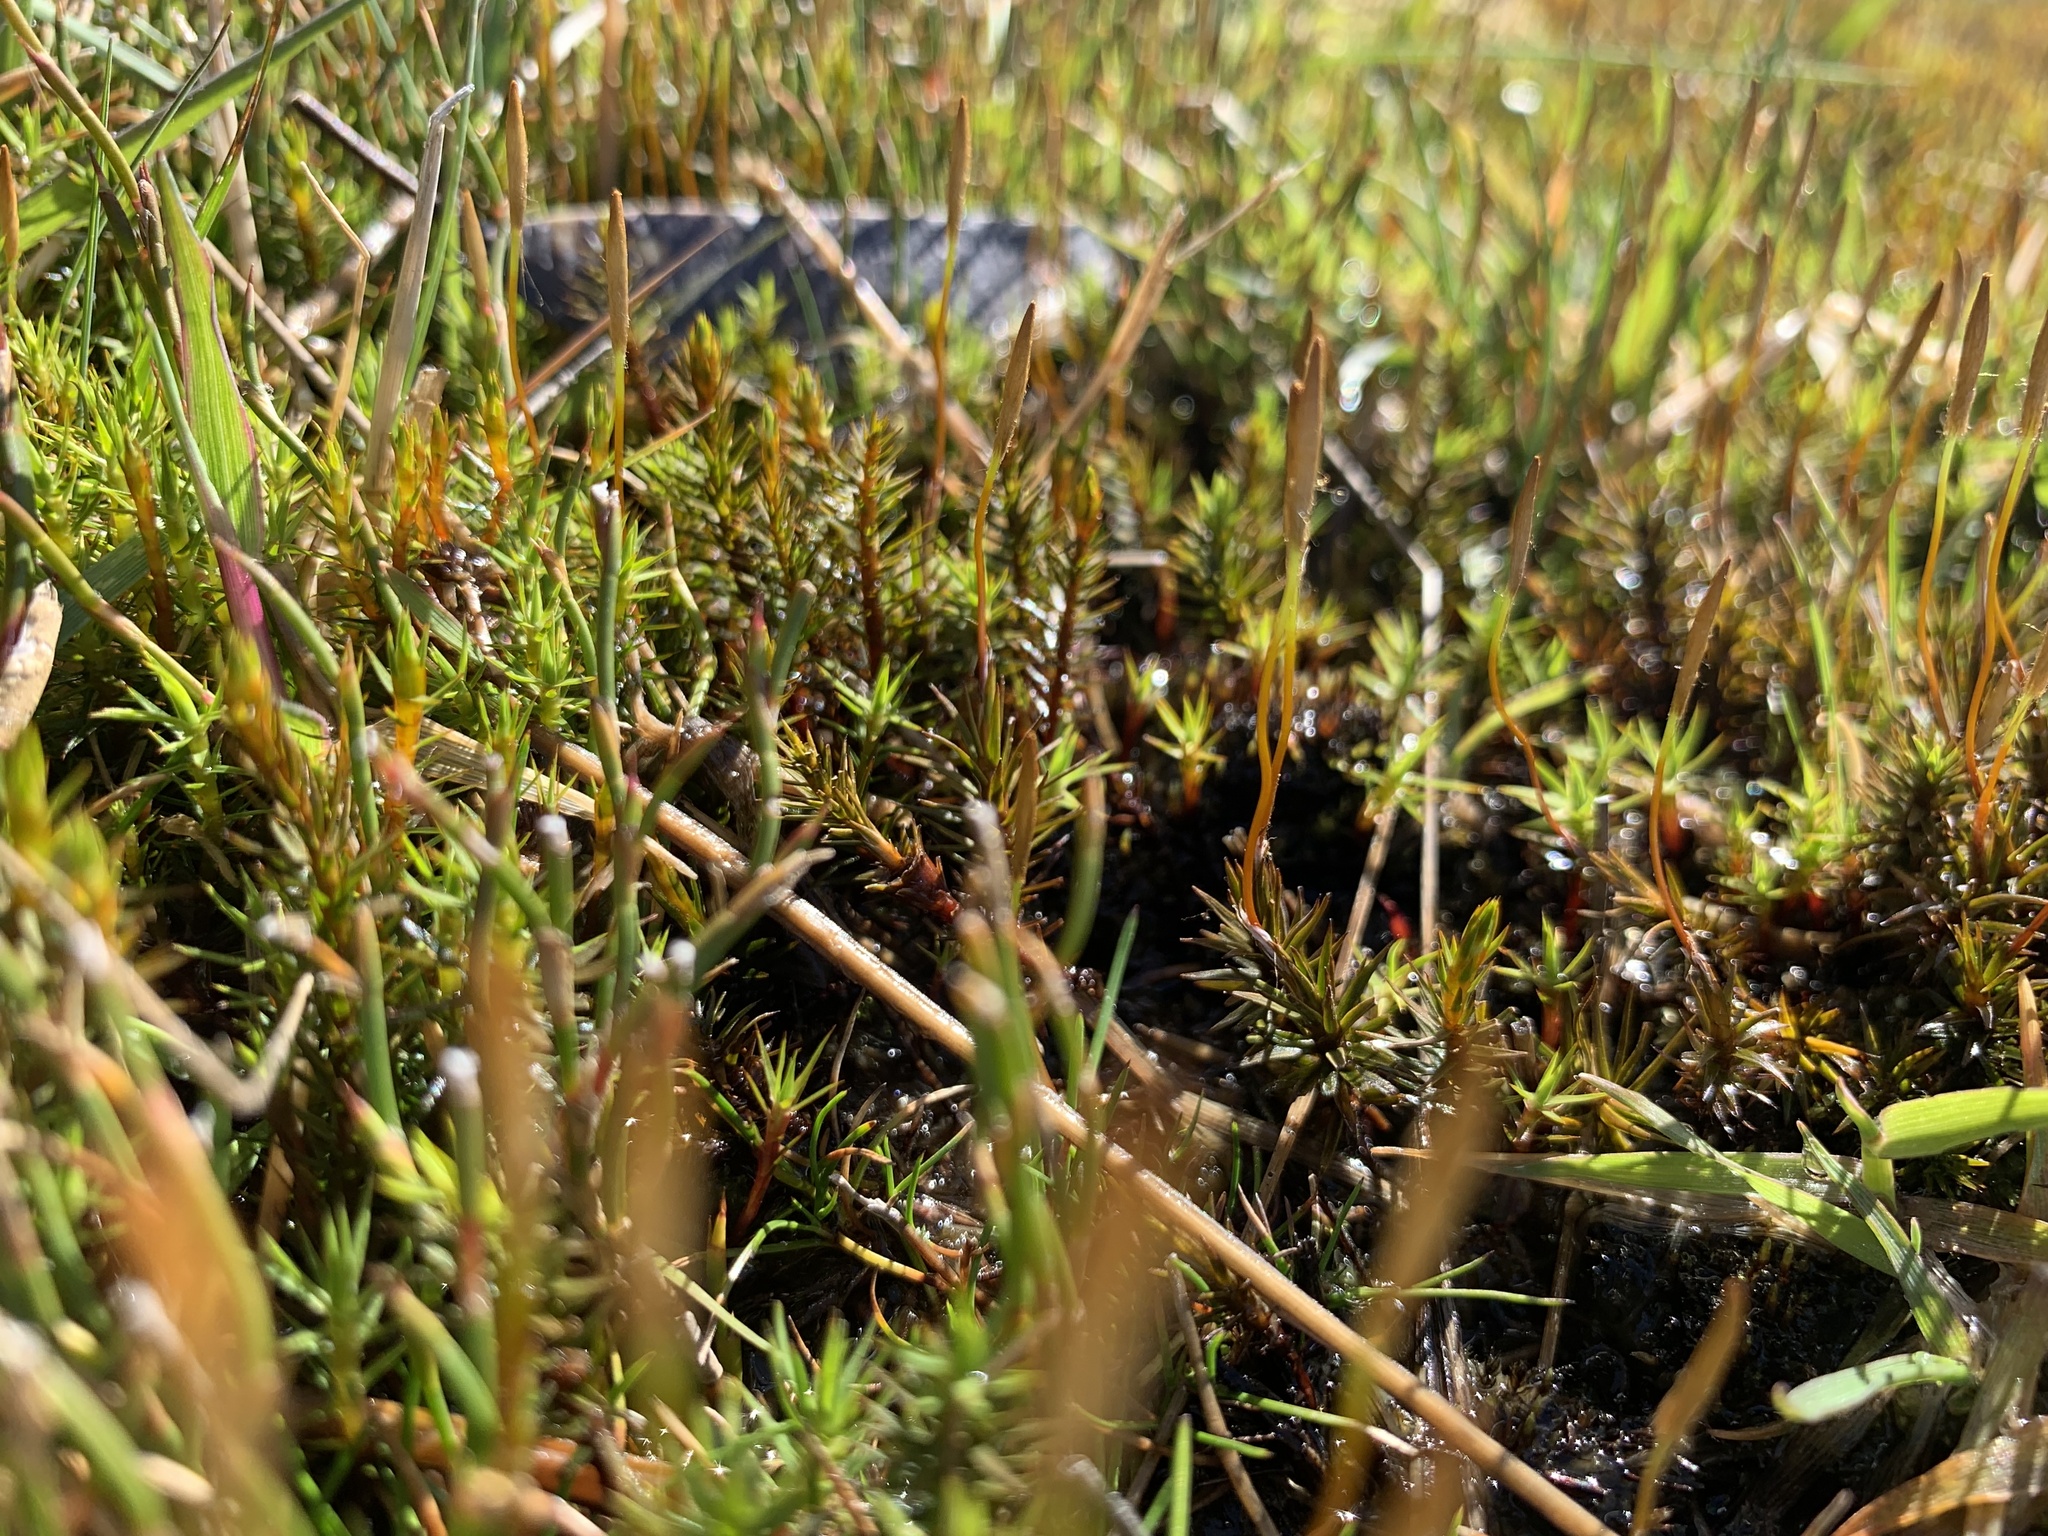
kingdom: Plantae
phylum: Bryophyta
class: Polytrichopsida
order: Polytrichales
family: Polytrichaceae
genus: Polytrichum
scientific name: Polytrichum juniperinum
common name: Juniper haircap moss
